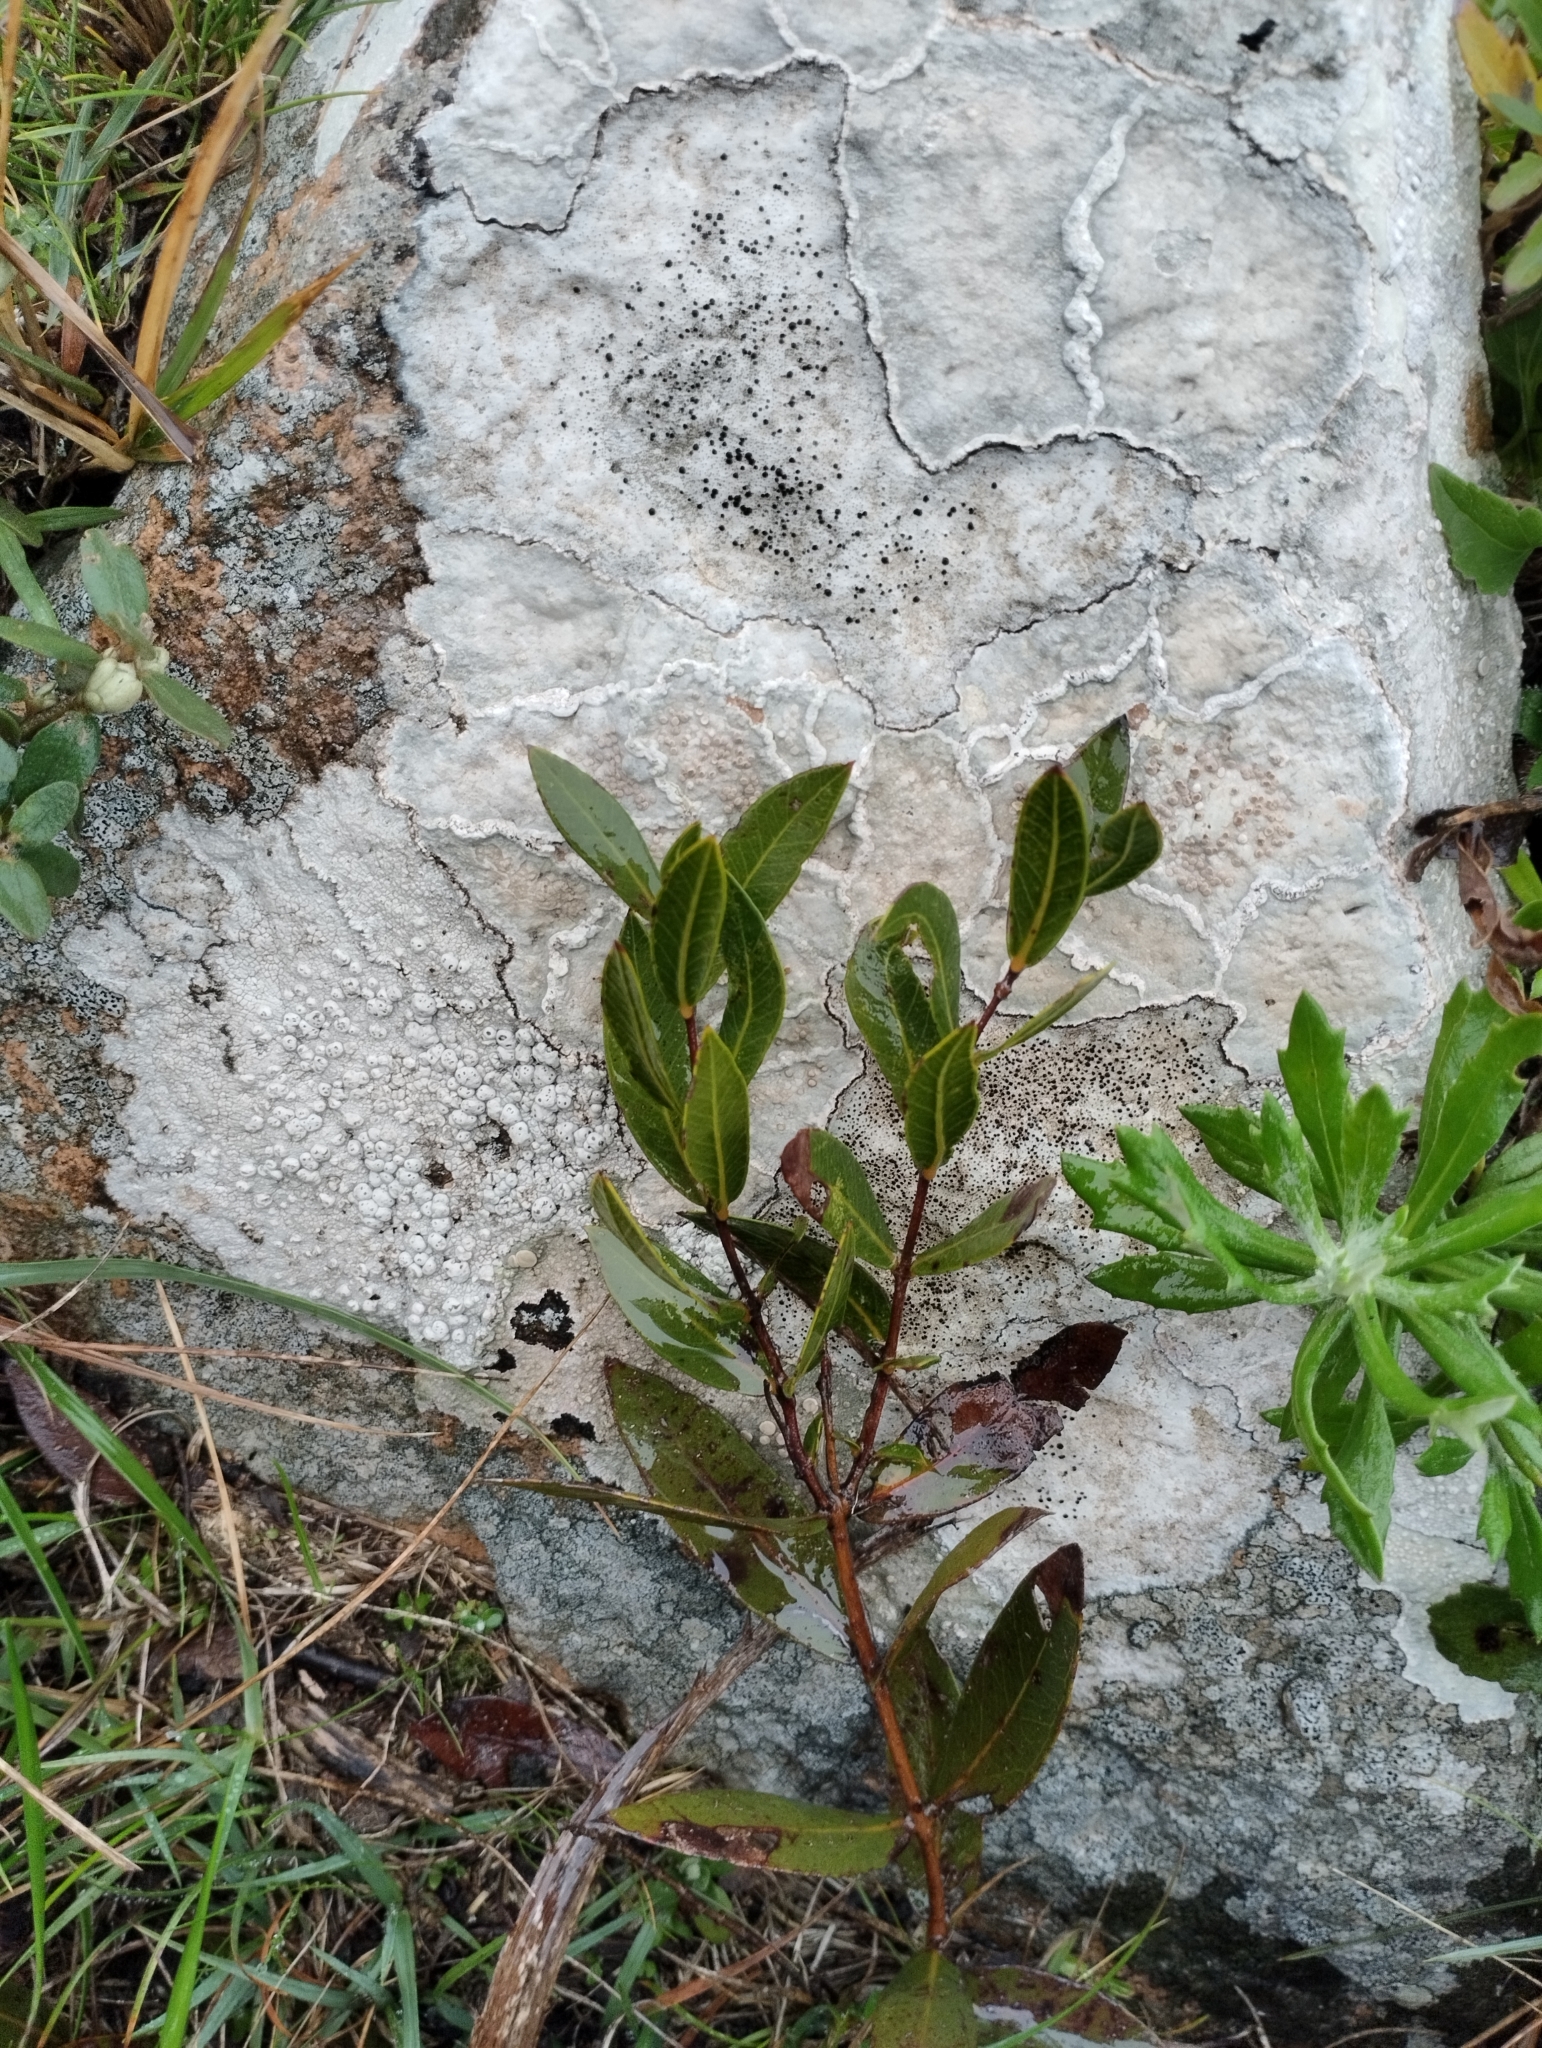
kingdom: Plantae
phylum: Tracheophyta
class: Magnoliopsida
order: Myrtales
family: Myrtaceae
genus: Psidium
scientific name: Psidium salutare
